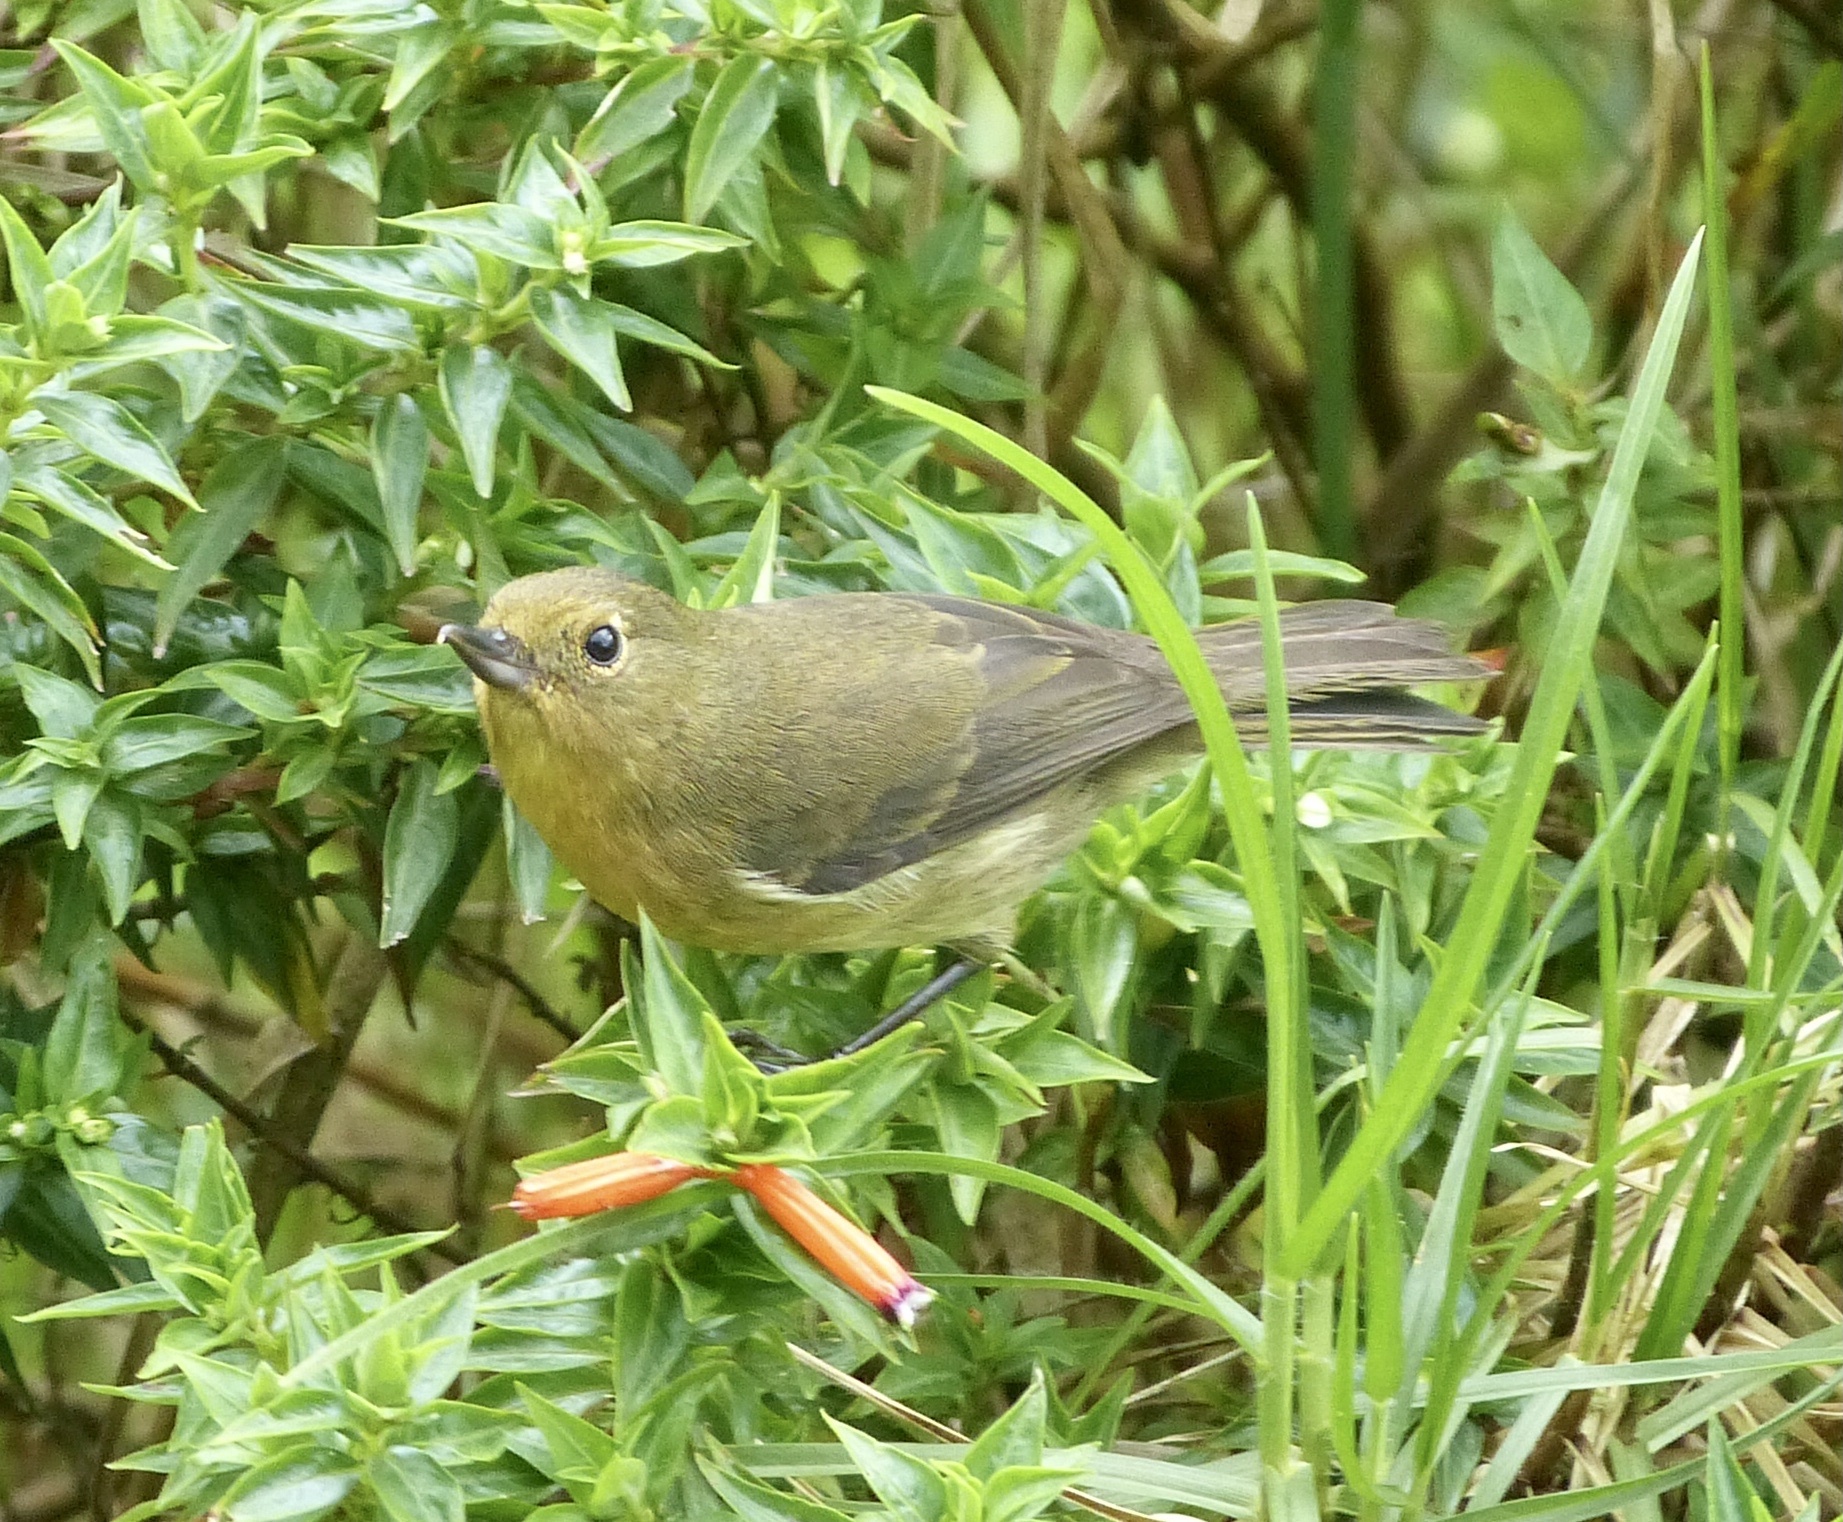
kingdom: Animalia
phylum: Chordata
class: Aves
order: Passeriformes
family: Thraupidae
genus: Diglossa
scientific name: Diglossa albilatera
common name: White-sided flowerpiercer
